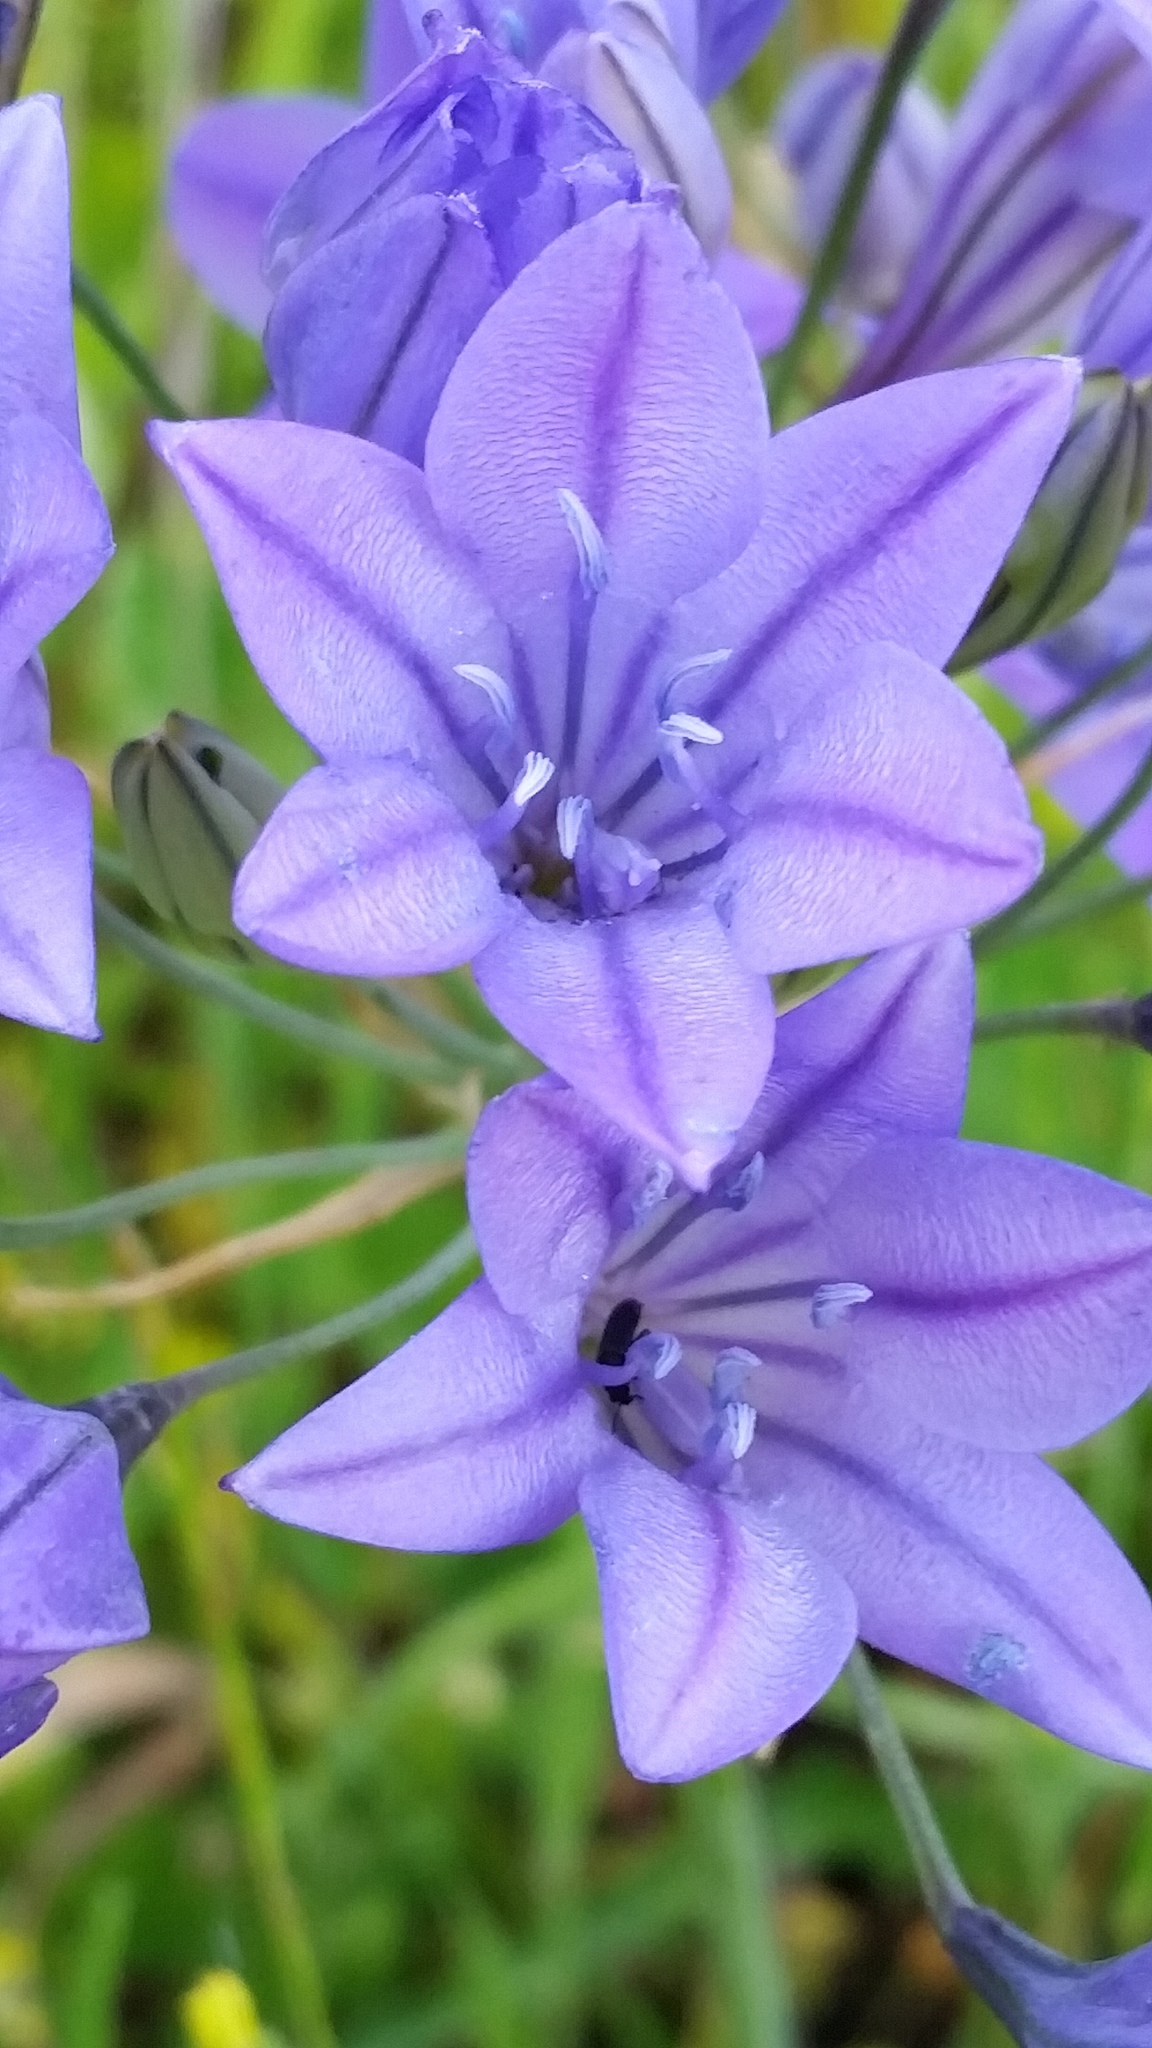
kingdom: Plantae
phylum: Tracheophyta
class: Liliopsida
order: Asparagales
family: Asparagaceae
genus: Triteleia
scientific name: Triteleia laxa
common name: Triplet-lily
